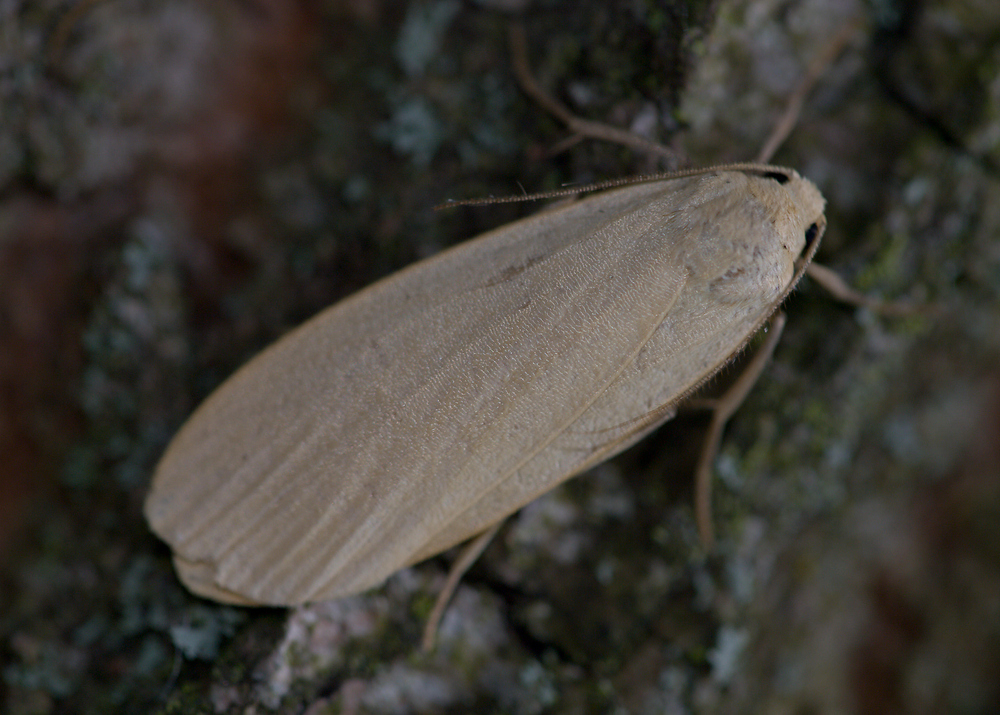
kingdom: Animalia
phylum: Arthropoda
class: Insecta
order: Lepidoptera
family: Erebidae
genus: Collita
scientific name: Collita griseola
